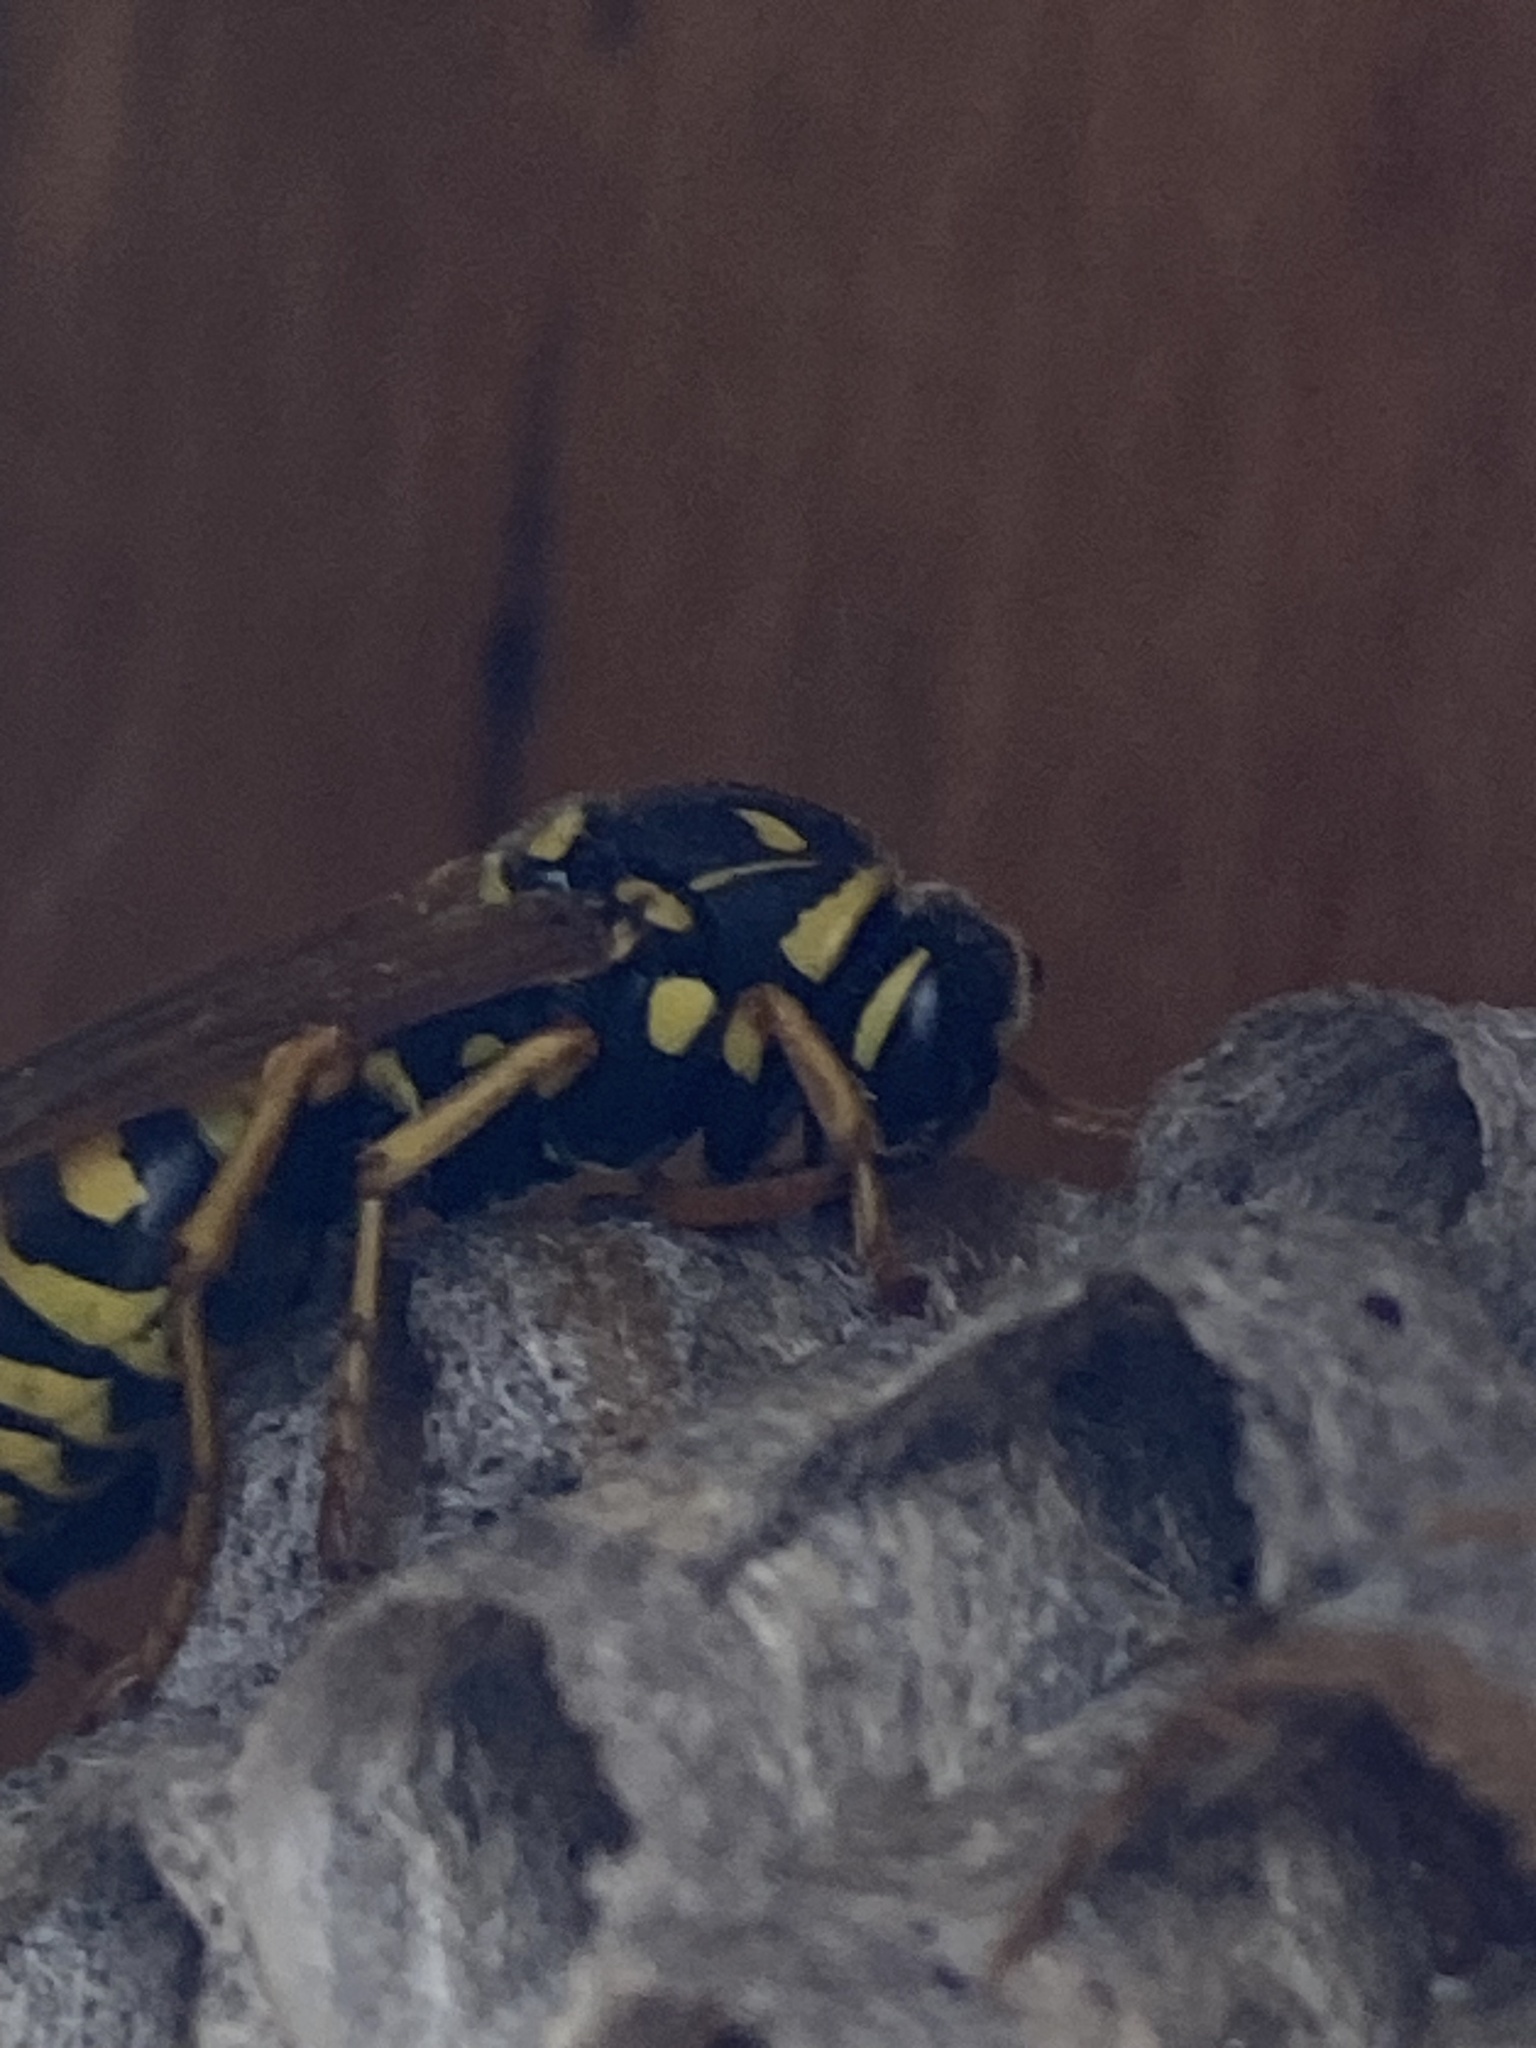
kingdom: Animalia
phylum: Arthropoda
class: Insecta
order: Hymenoptera
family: Eumenidae
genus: Polistes
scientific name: Polistes dominula
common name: Paper wasp
